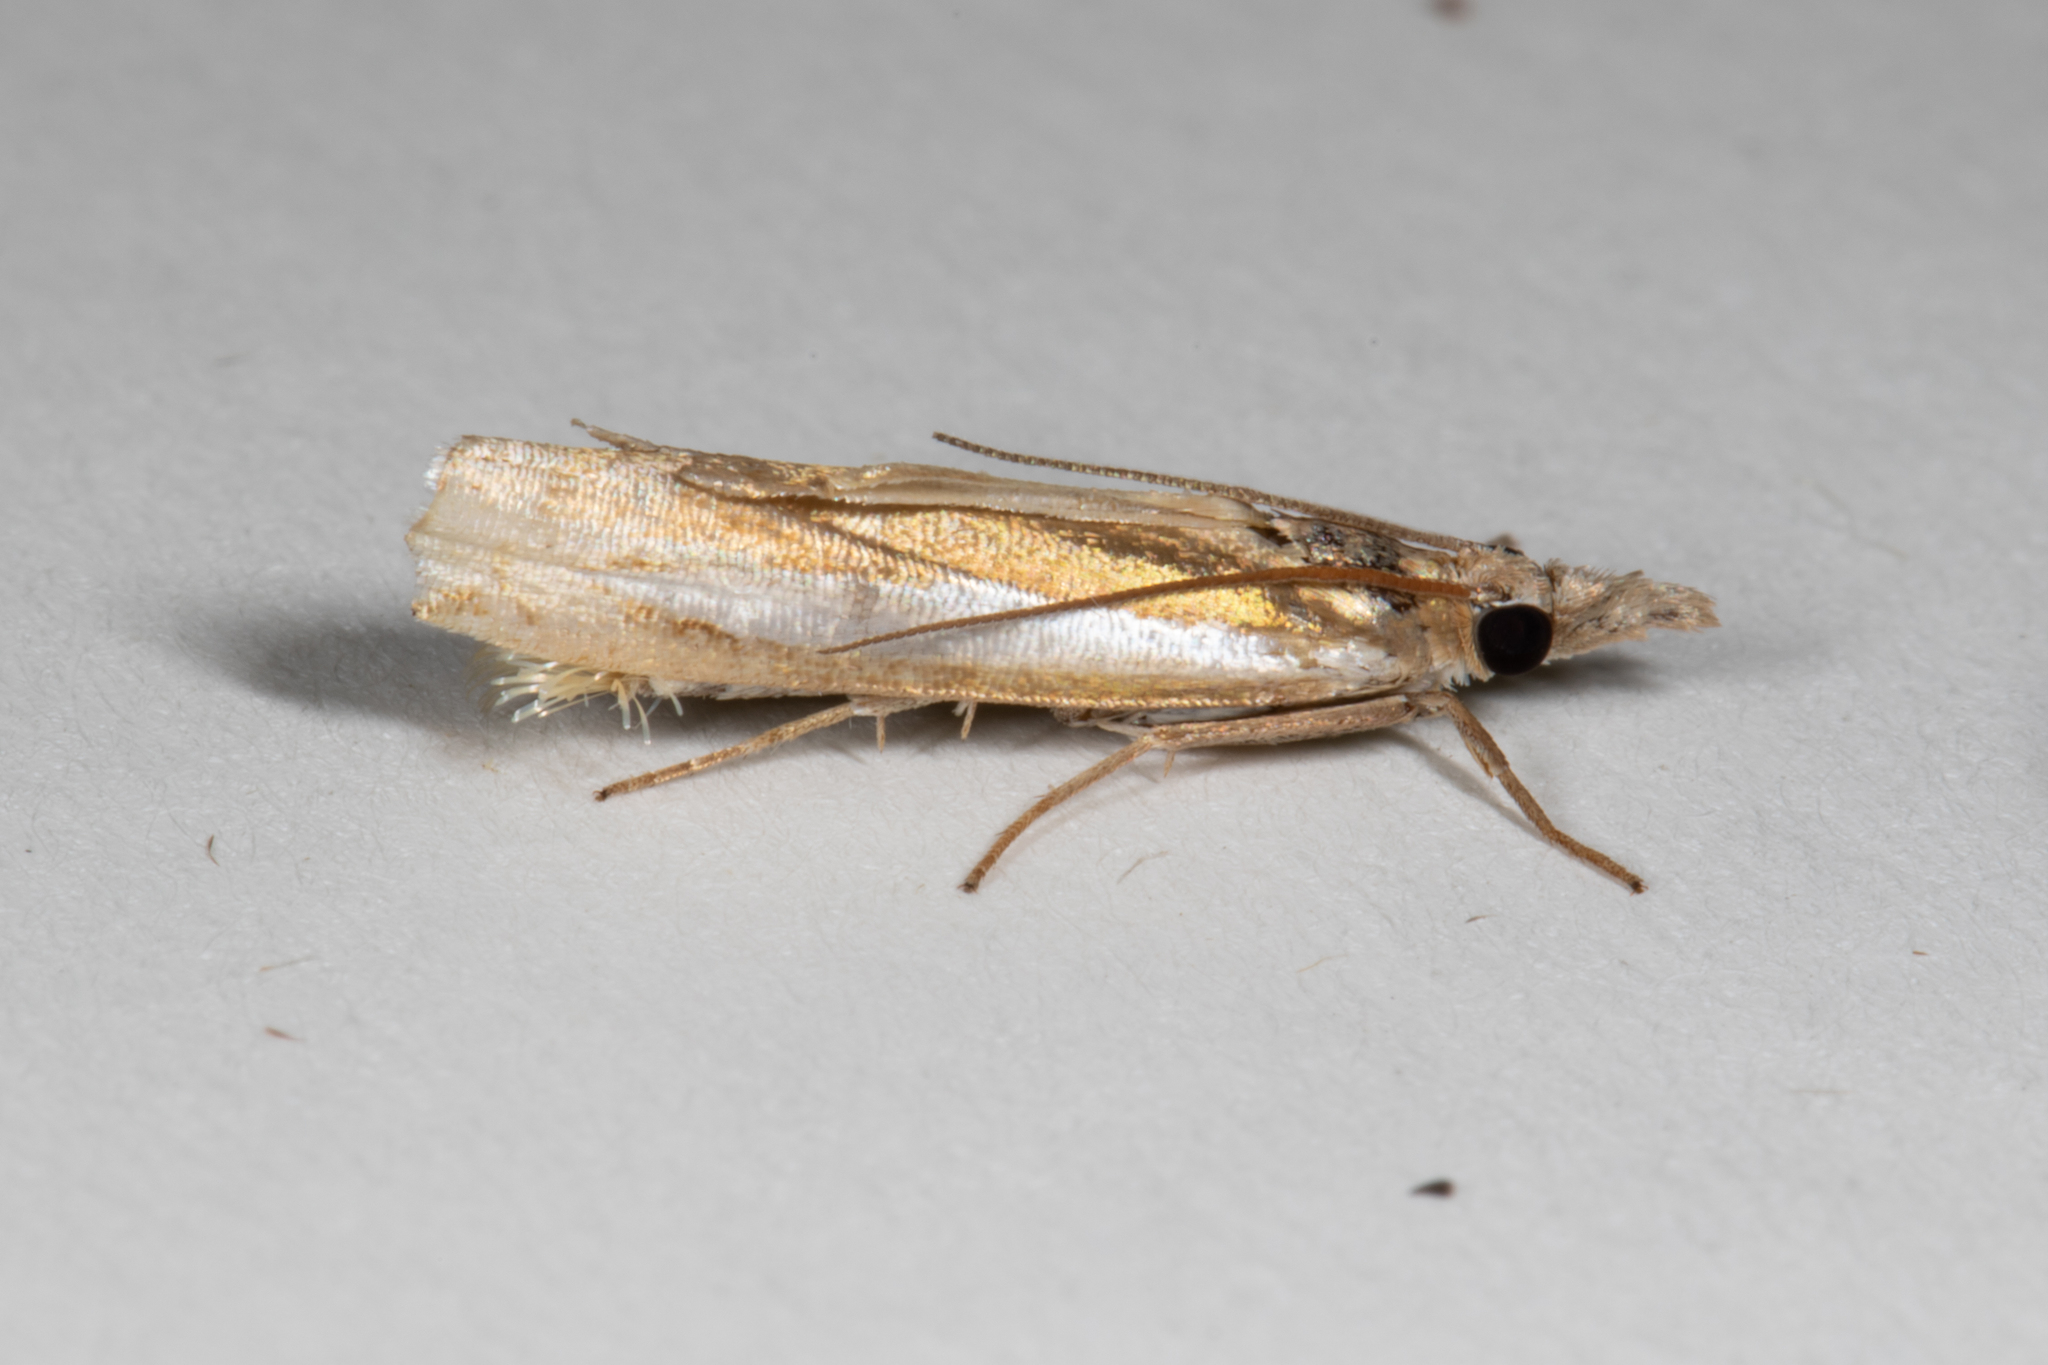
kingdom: Animalia
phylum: Arthropoda
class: Insecta
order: Lepidoptera
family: Crambidae
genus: Crambus
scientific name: Crambus praefectellus
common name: Common grass-veneer
